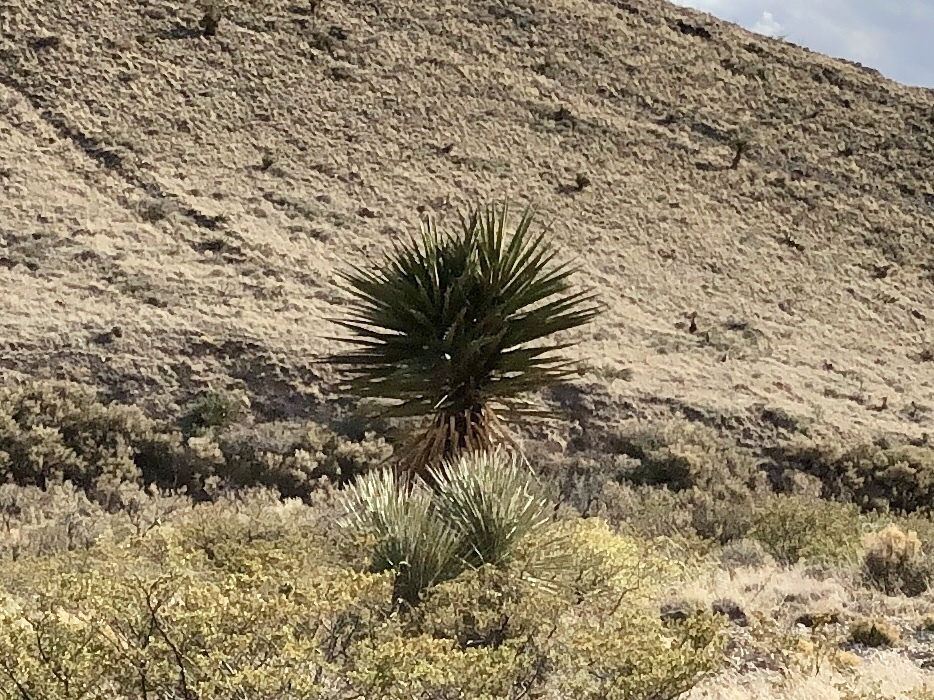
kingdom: Plantae
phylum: Tracheophyta
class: Liliopsida
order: Asparagales
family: Asparagaceae
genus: Yucca
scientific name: Yucca treculiana
